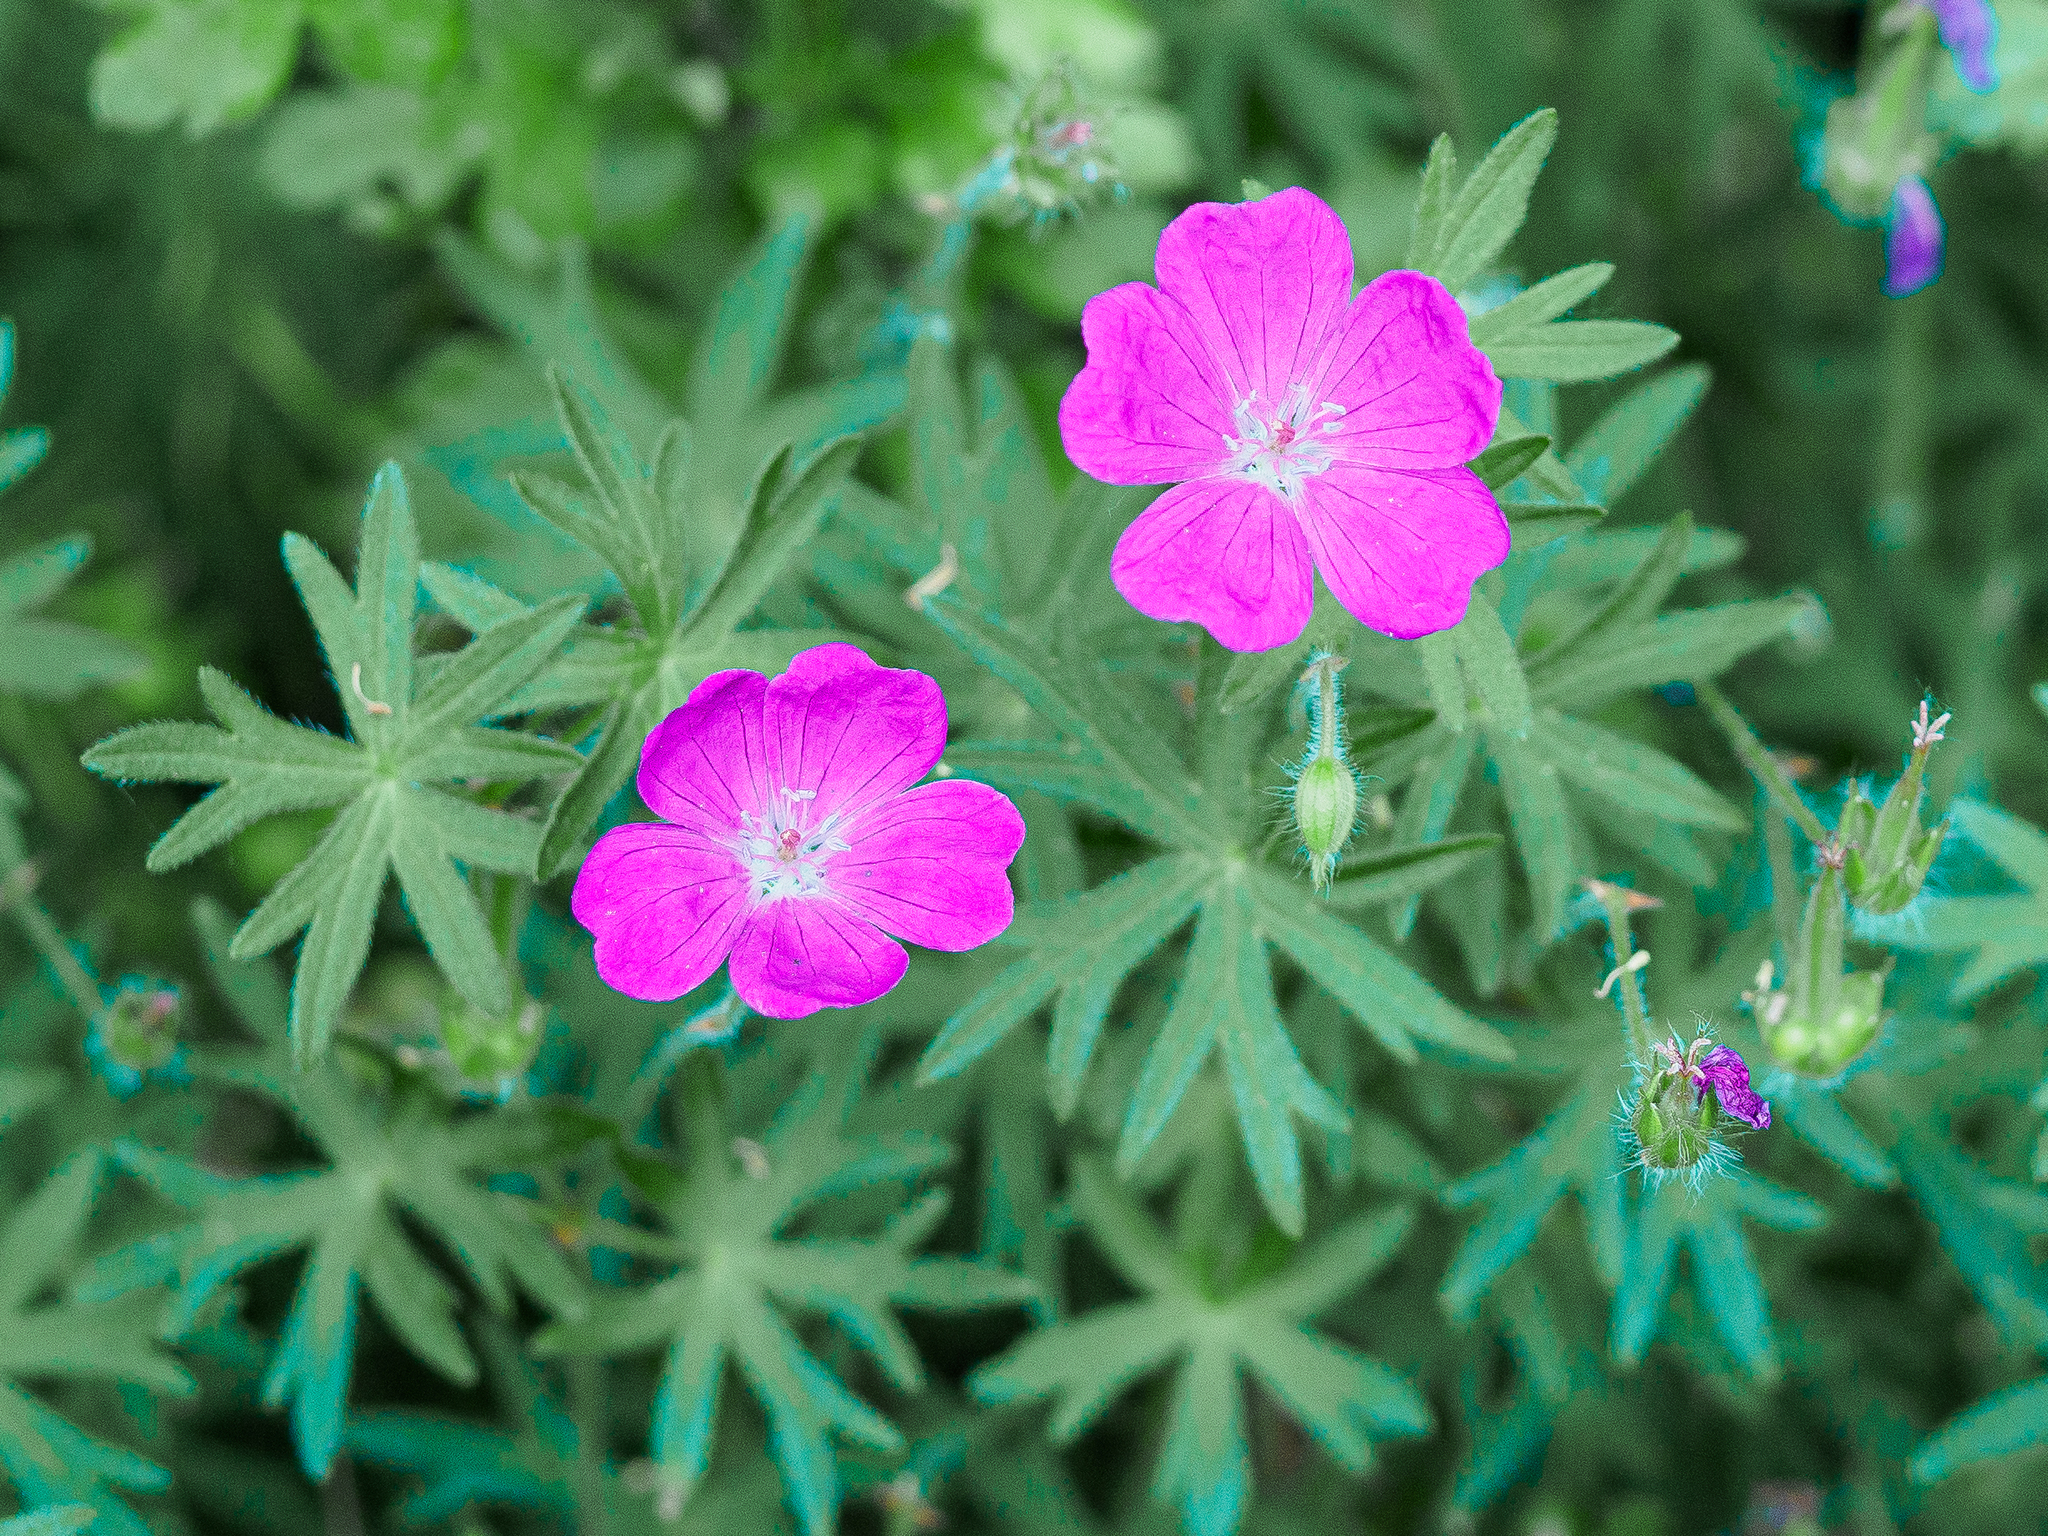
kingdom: Plantae
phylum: Tracheophyta
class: Magnoliopsida
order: Geraniales
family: Geraniaceae
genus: Geranium
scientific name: Geranium sanguineum
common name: Bloody crane's-bill
